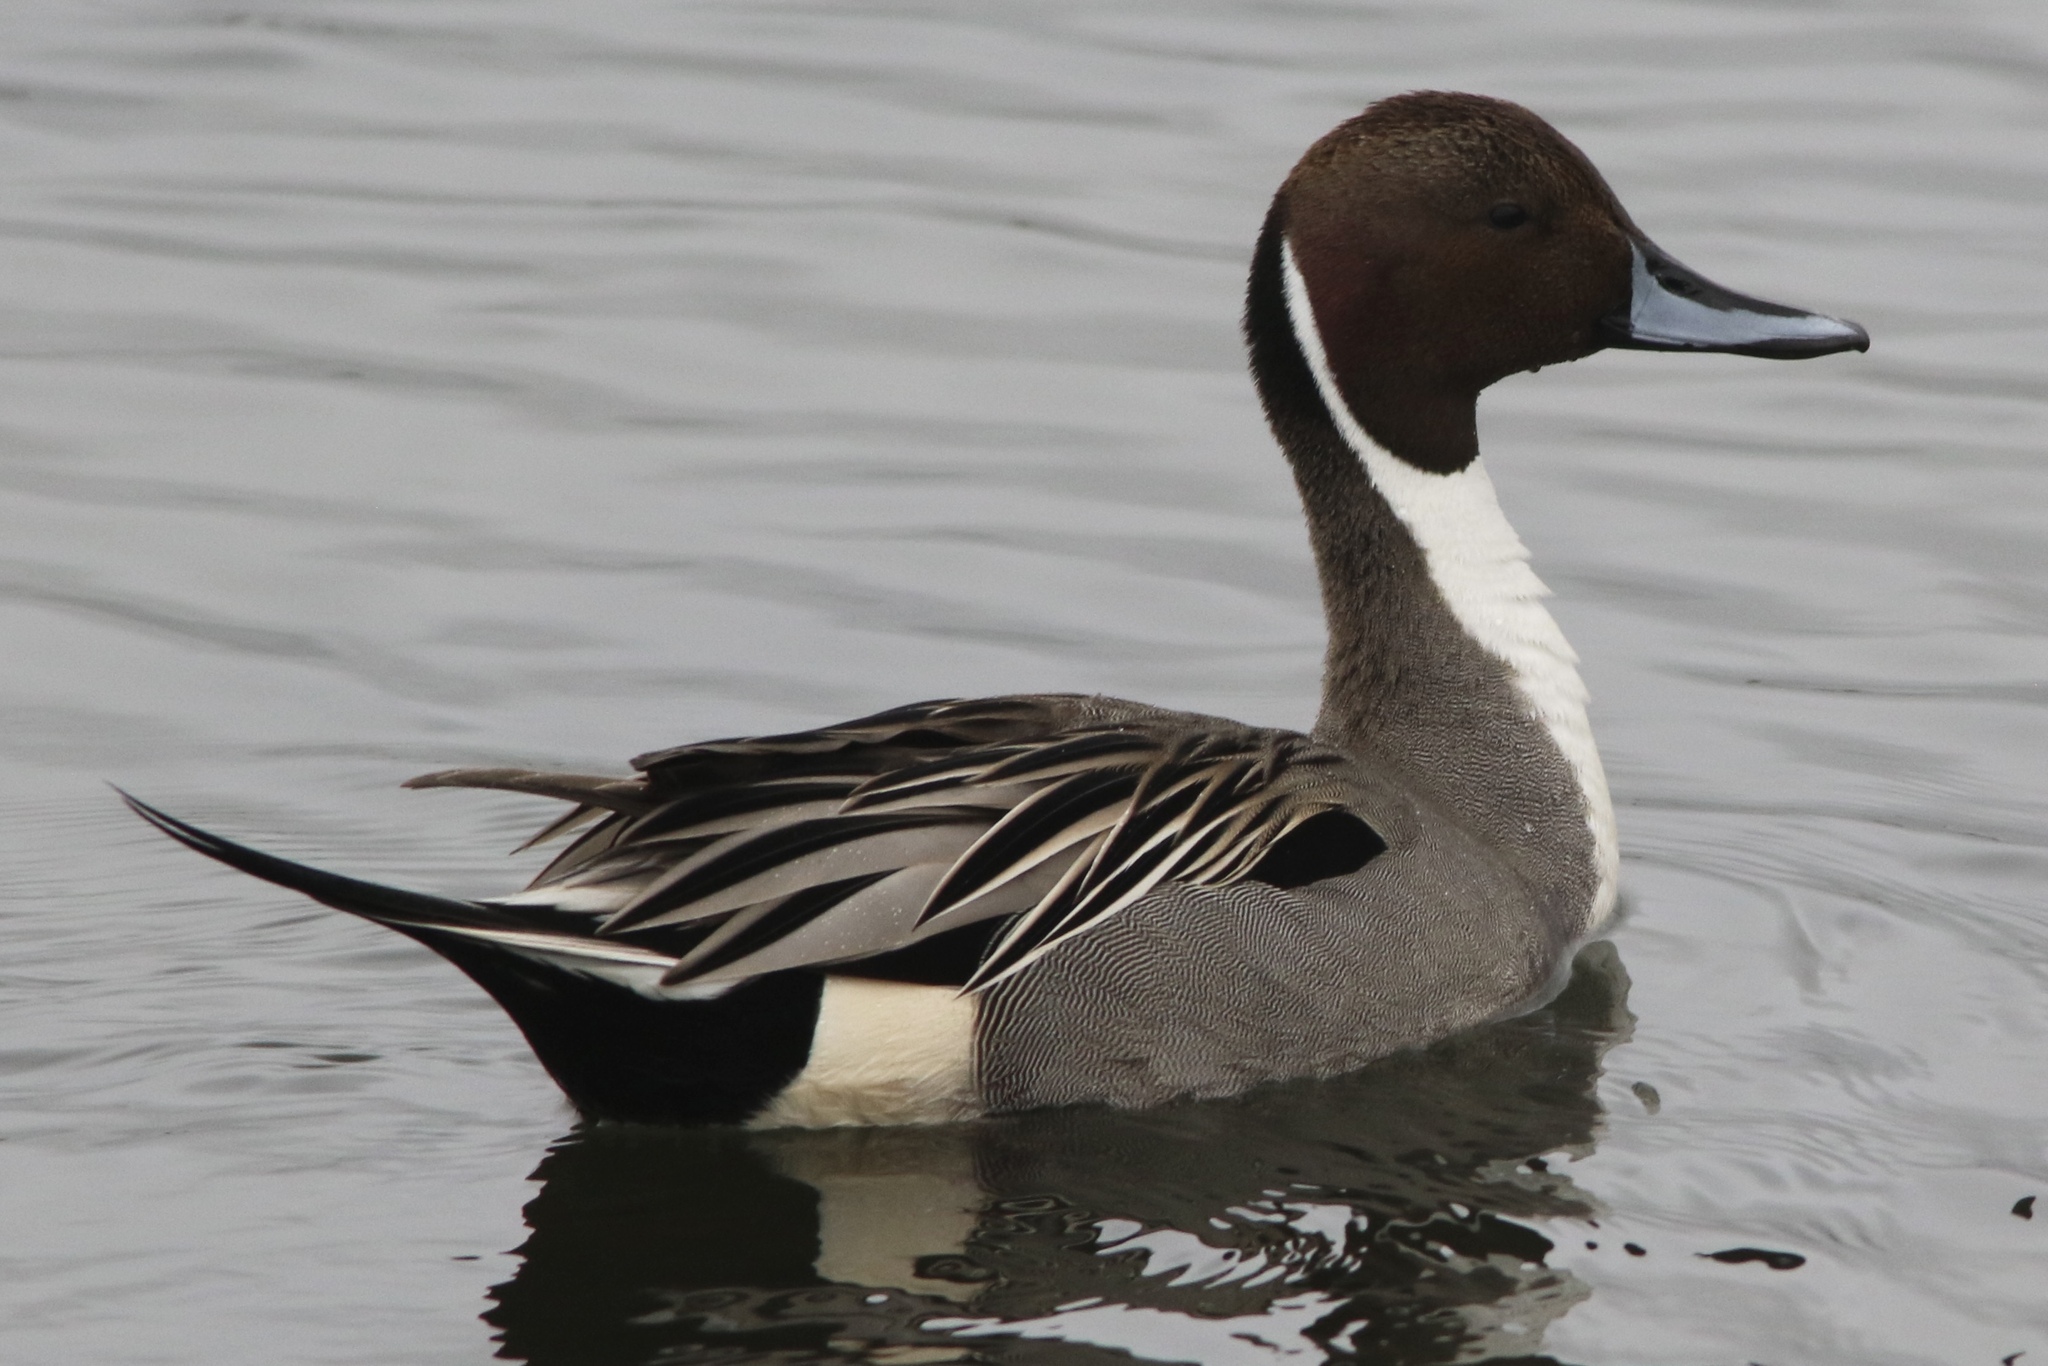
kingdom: Animalia
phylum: Chordata
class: Aves
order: Anseriformes
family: Anatidae
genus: Anas
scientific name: Anas acuta
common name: Northern pintail
